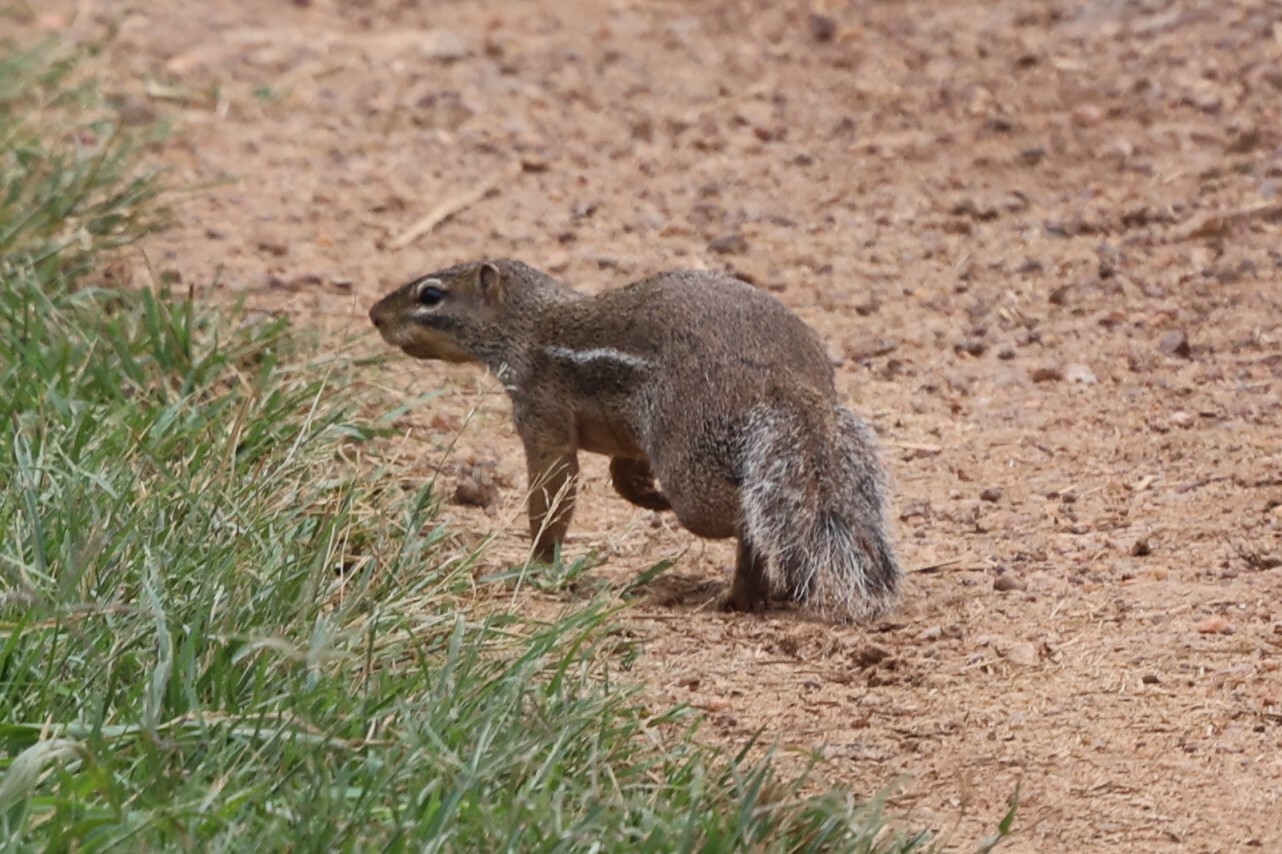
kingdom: Animalia
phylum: Chordata
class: Mammalia
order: Rodentia
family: Sciuridae
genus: Xerus
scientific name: Xerus erythropus
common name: Striped ground squirrel
